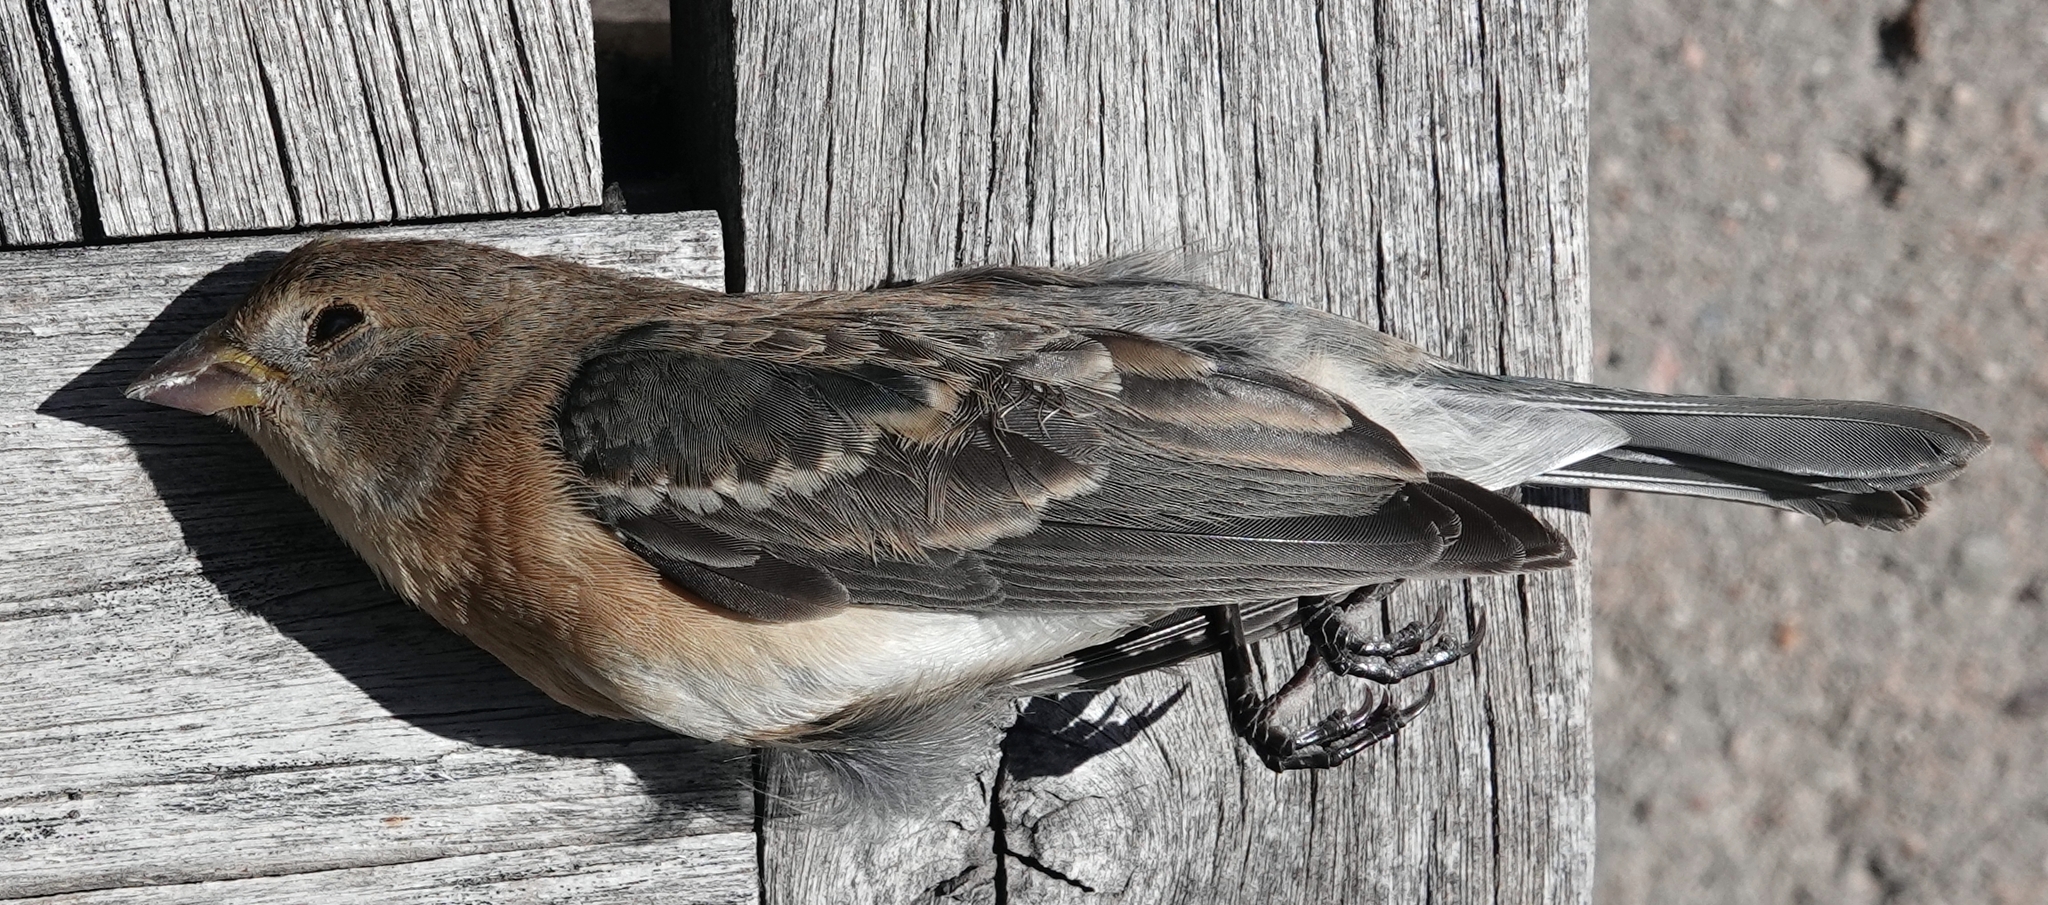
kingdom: Animalia
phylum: Chordata
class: Aves
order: Passeriformes
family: Cardinalidae
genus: Passerina
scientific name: Passerina amoena
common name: Lazuli bunting
